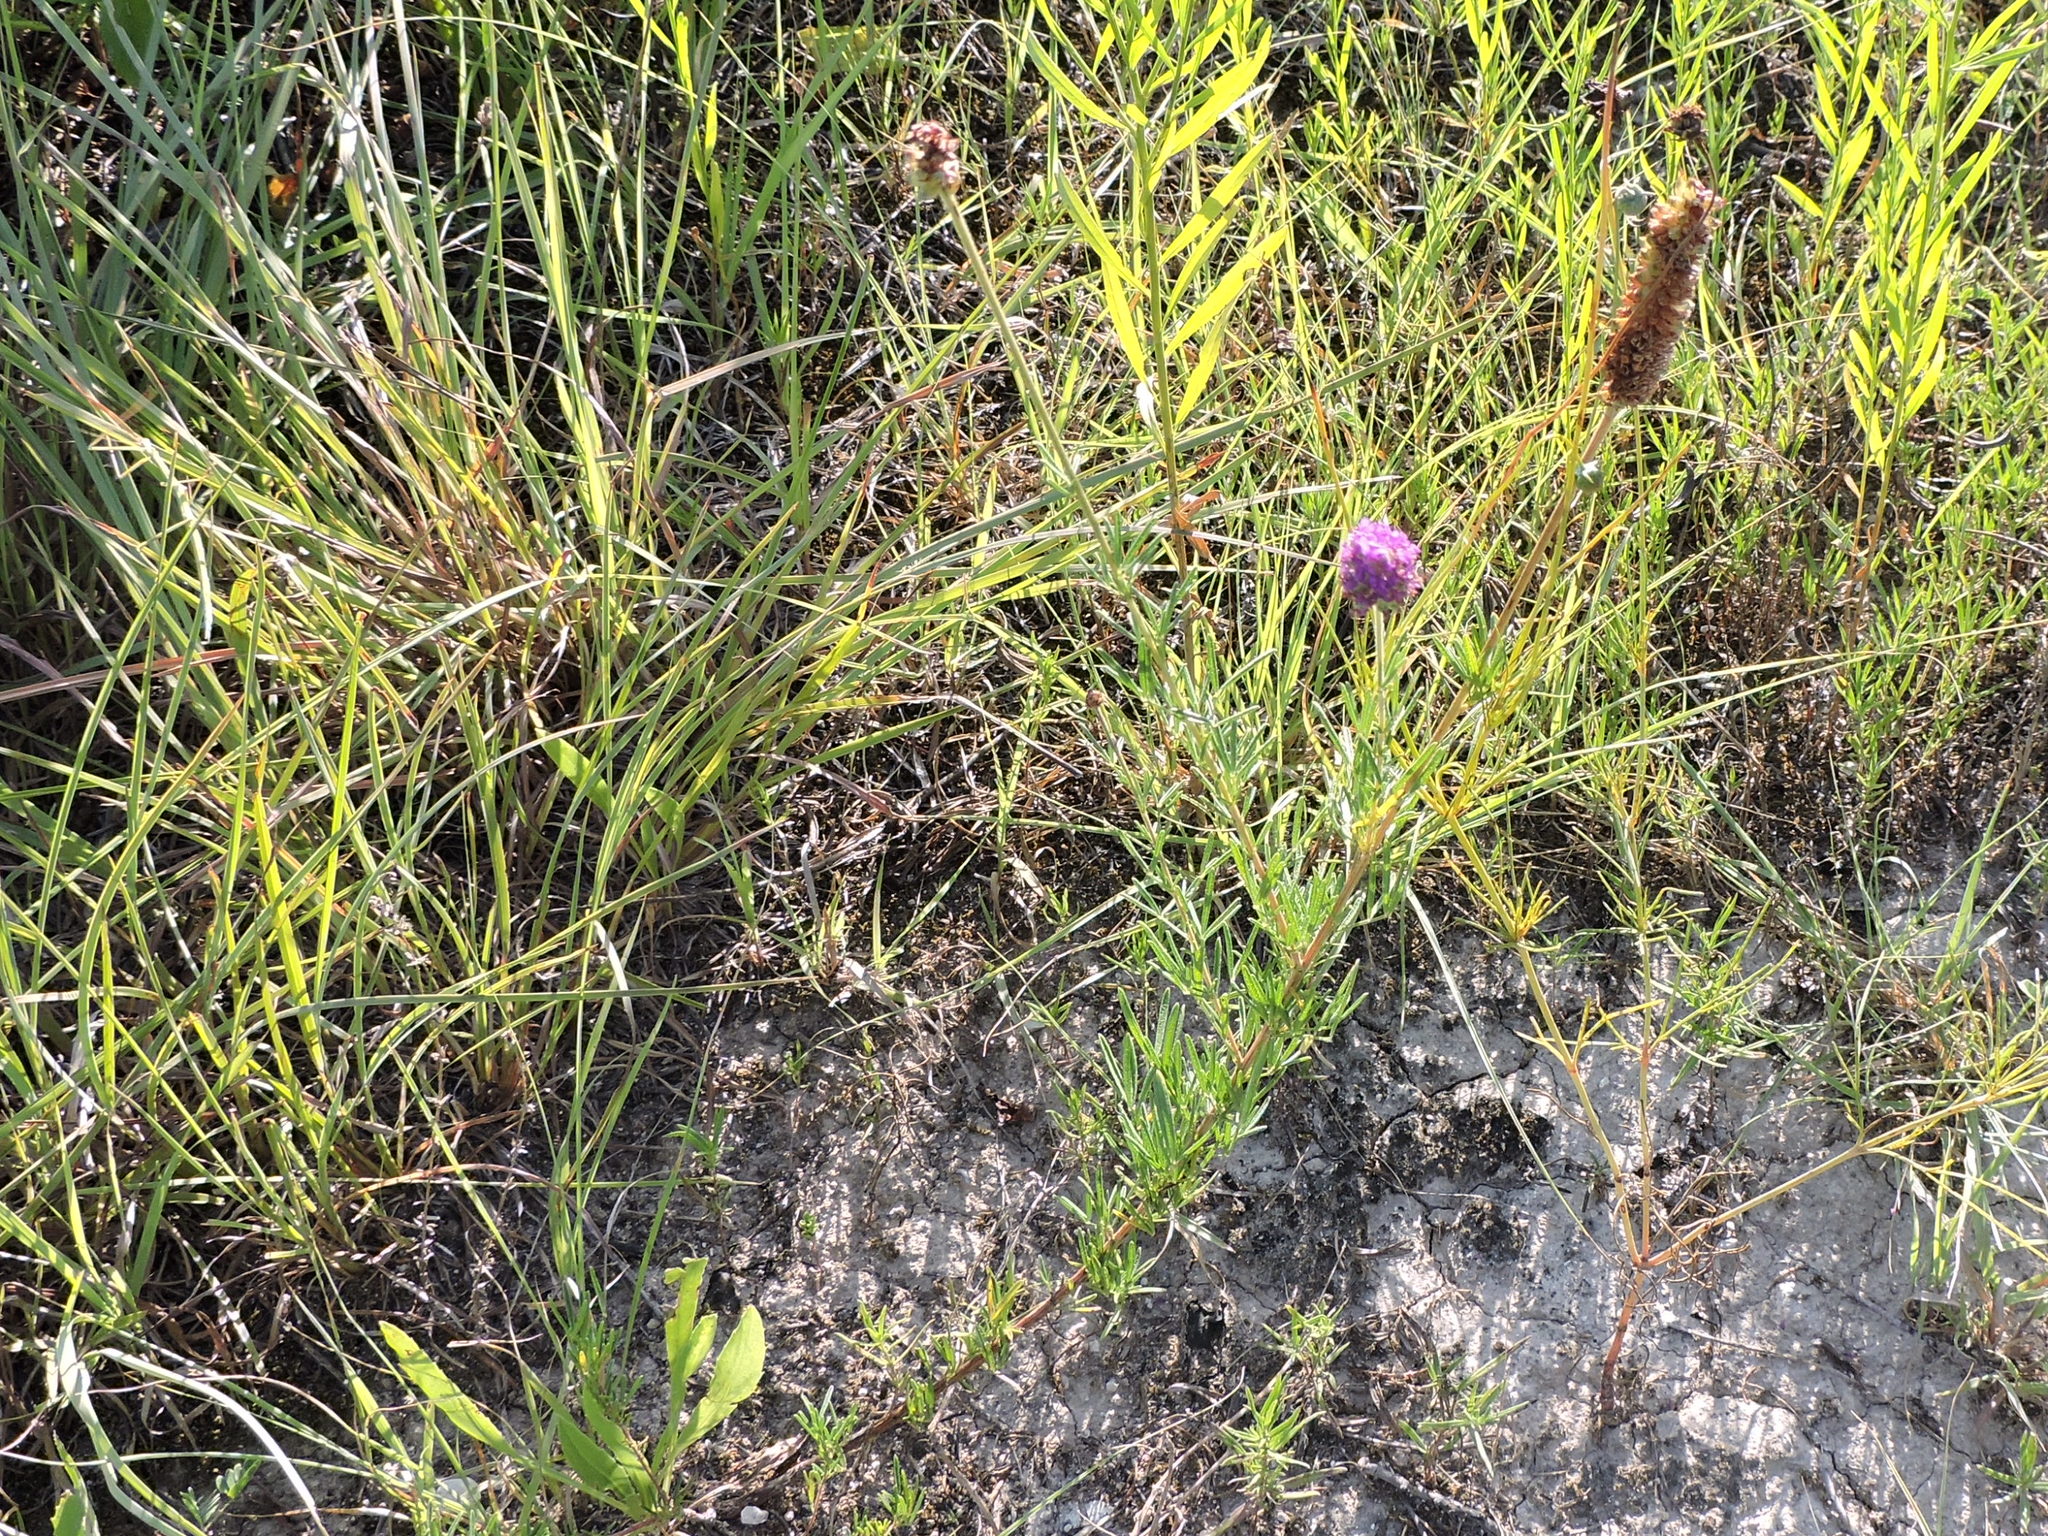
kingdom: Plantae
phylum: Tracheophyta
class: Magnoliopsida
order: Fabales
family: Fabaceae
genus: Dalea
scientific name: Dalea compacta
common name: Compact prairie-clover
